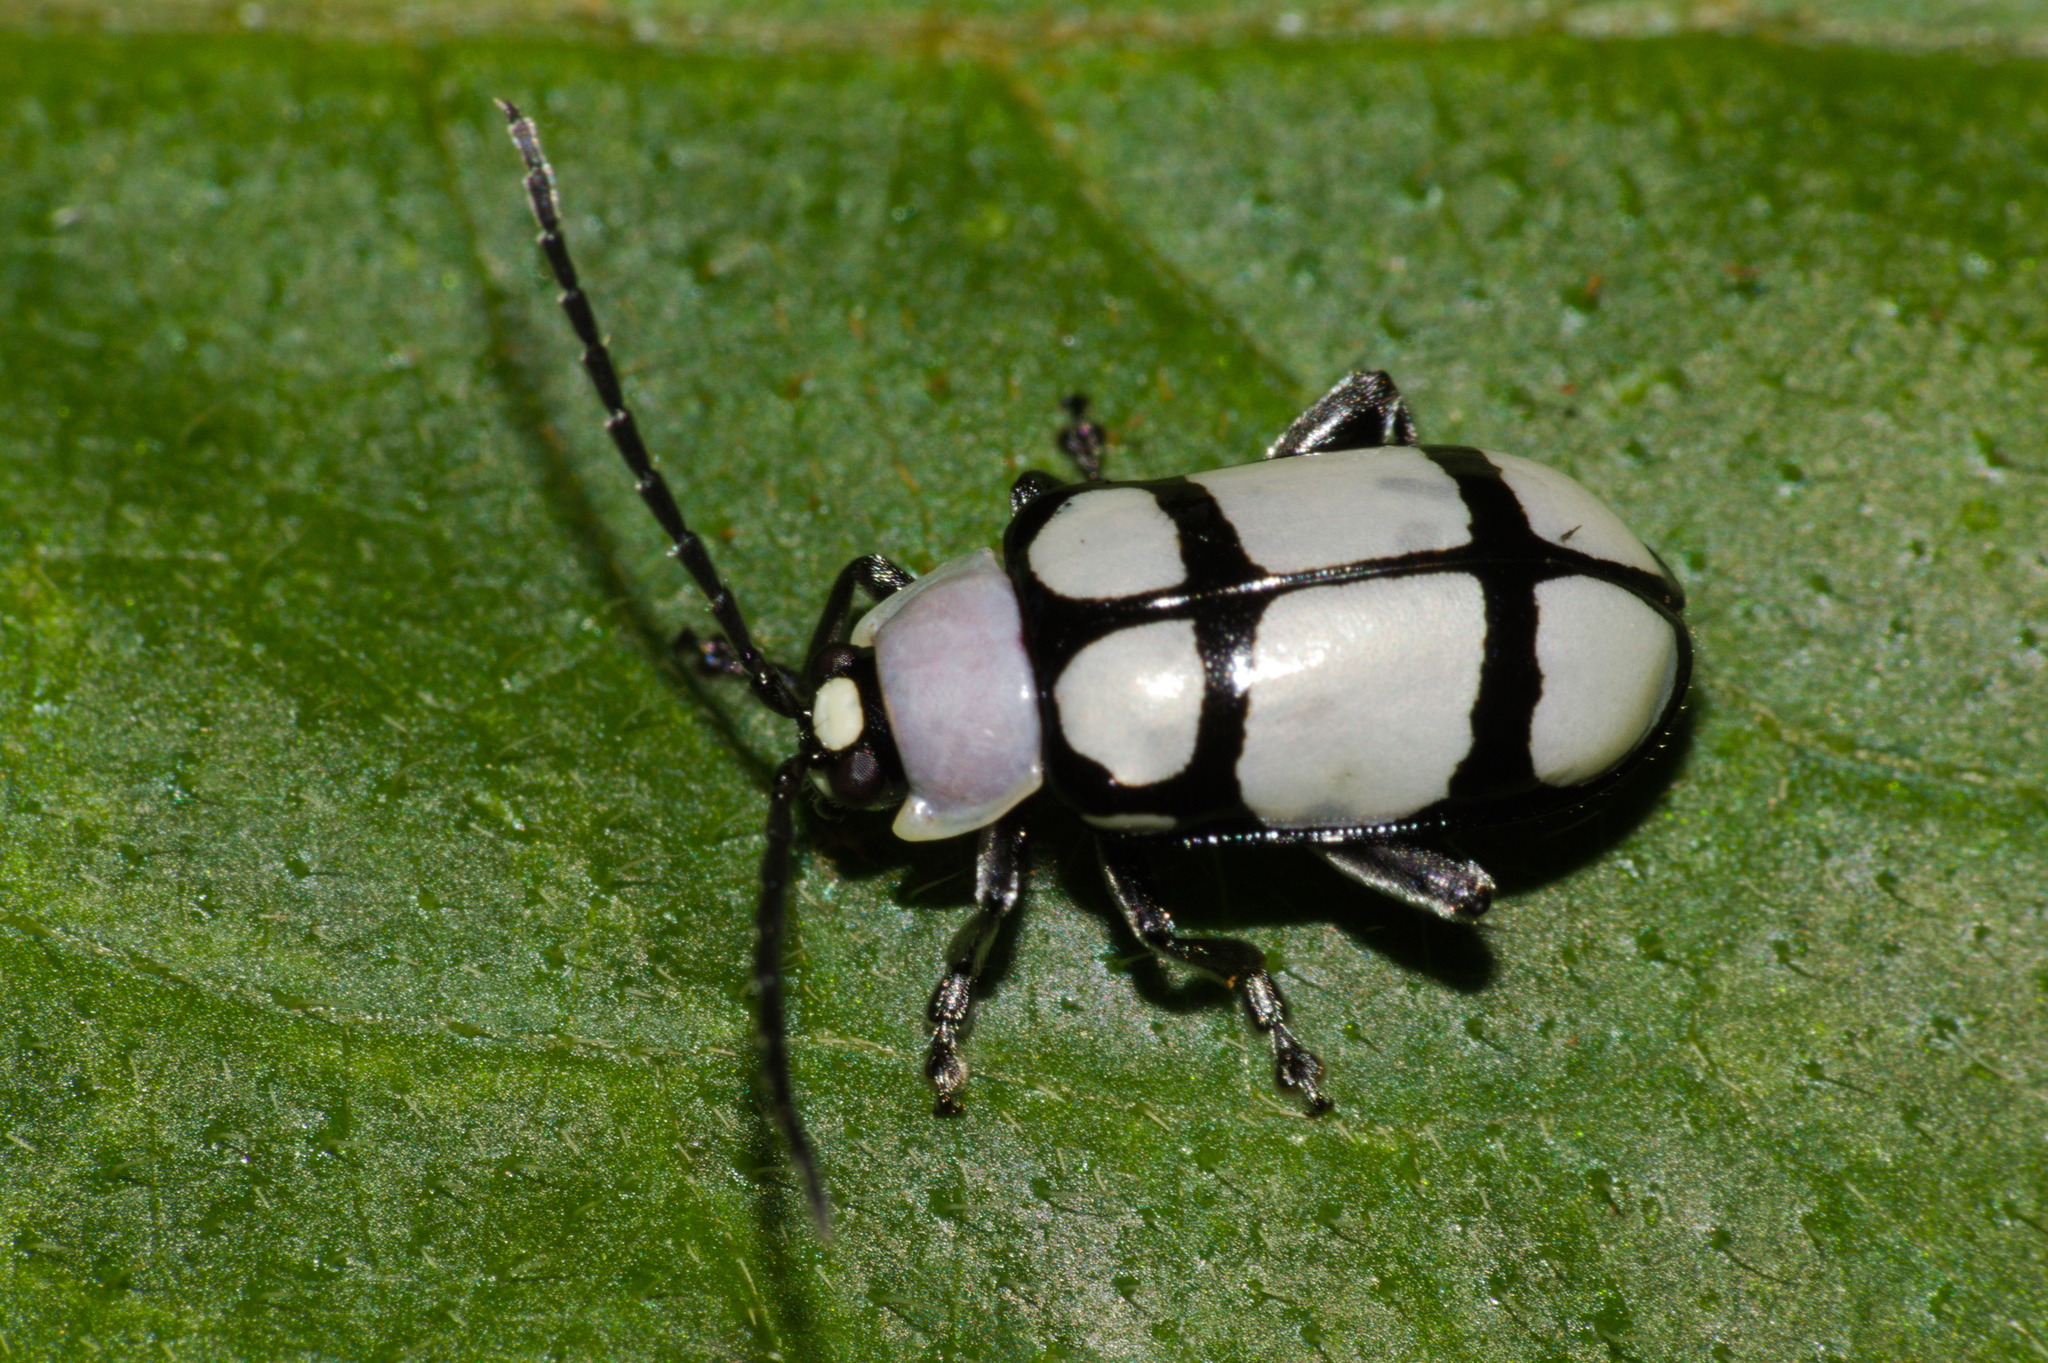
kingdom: Animalia
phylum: Arthropoda
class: Insecta
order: Coleoptera
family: Chrysomelidae
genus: Omophoita
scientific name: Omophoita
